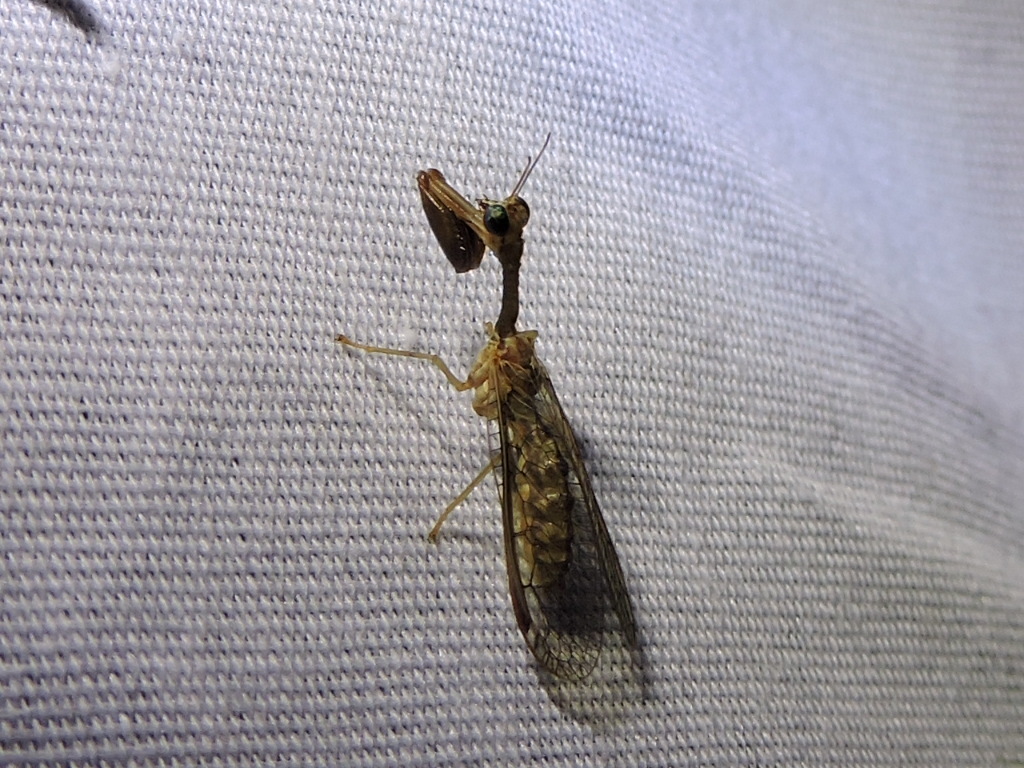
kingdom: Animalia
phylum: Arthropoda
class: Insecta
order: Neuroptera
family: Mantispidae
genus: Leptomantispa
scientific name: Leptomantispa pulchella
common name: Stevens's mantidfly
